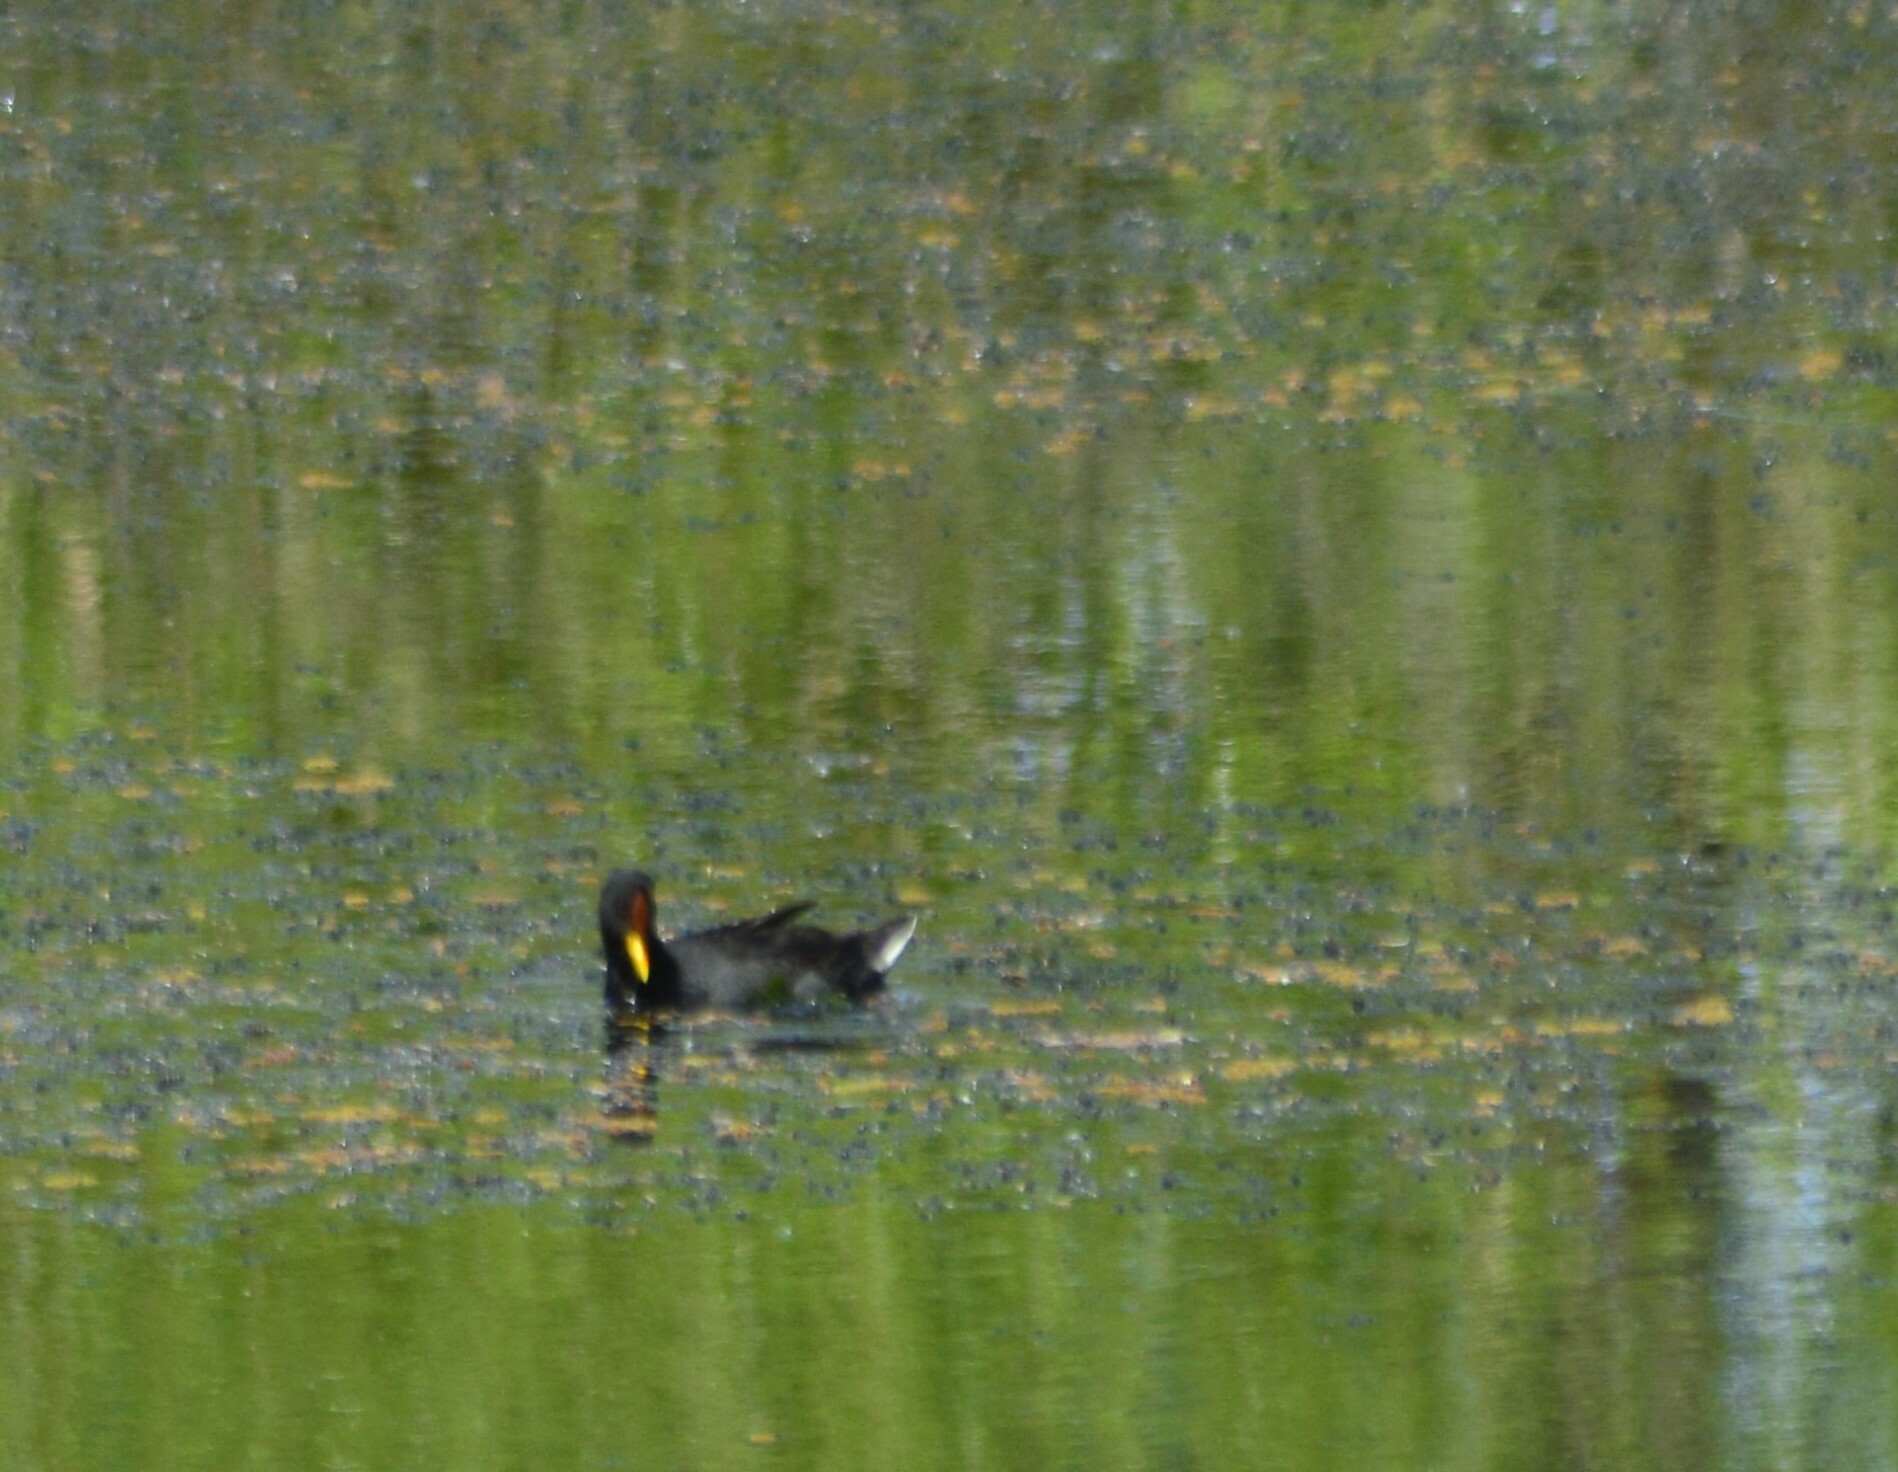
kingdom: Animalia
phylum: Chordata
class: Aves
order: Gruiformes
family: Rallidae
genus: Fulica
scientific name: Fulica rufifrons
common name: Red-fronted coot
